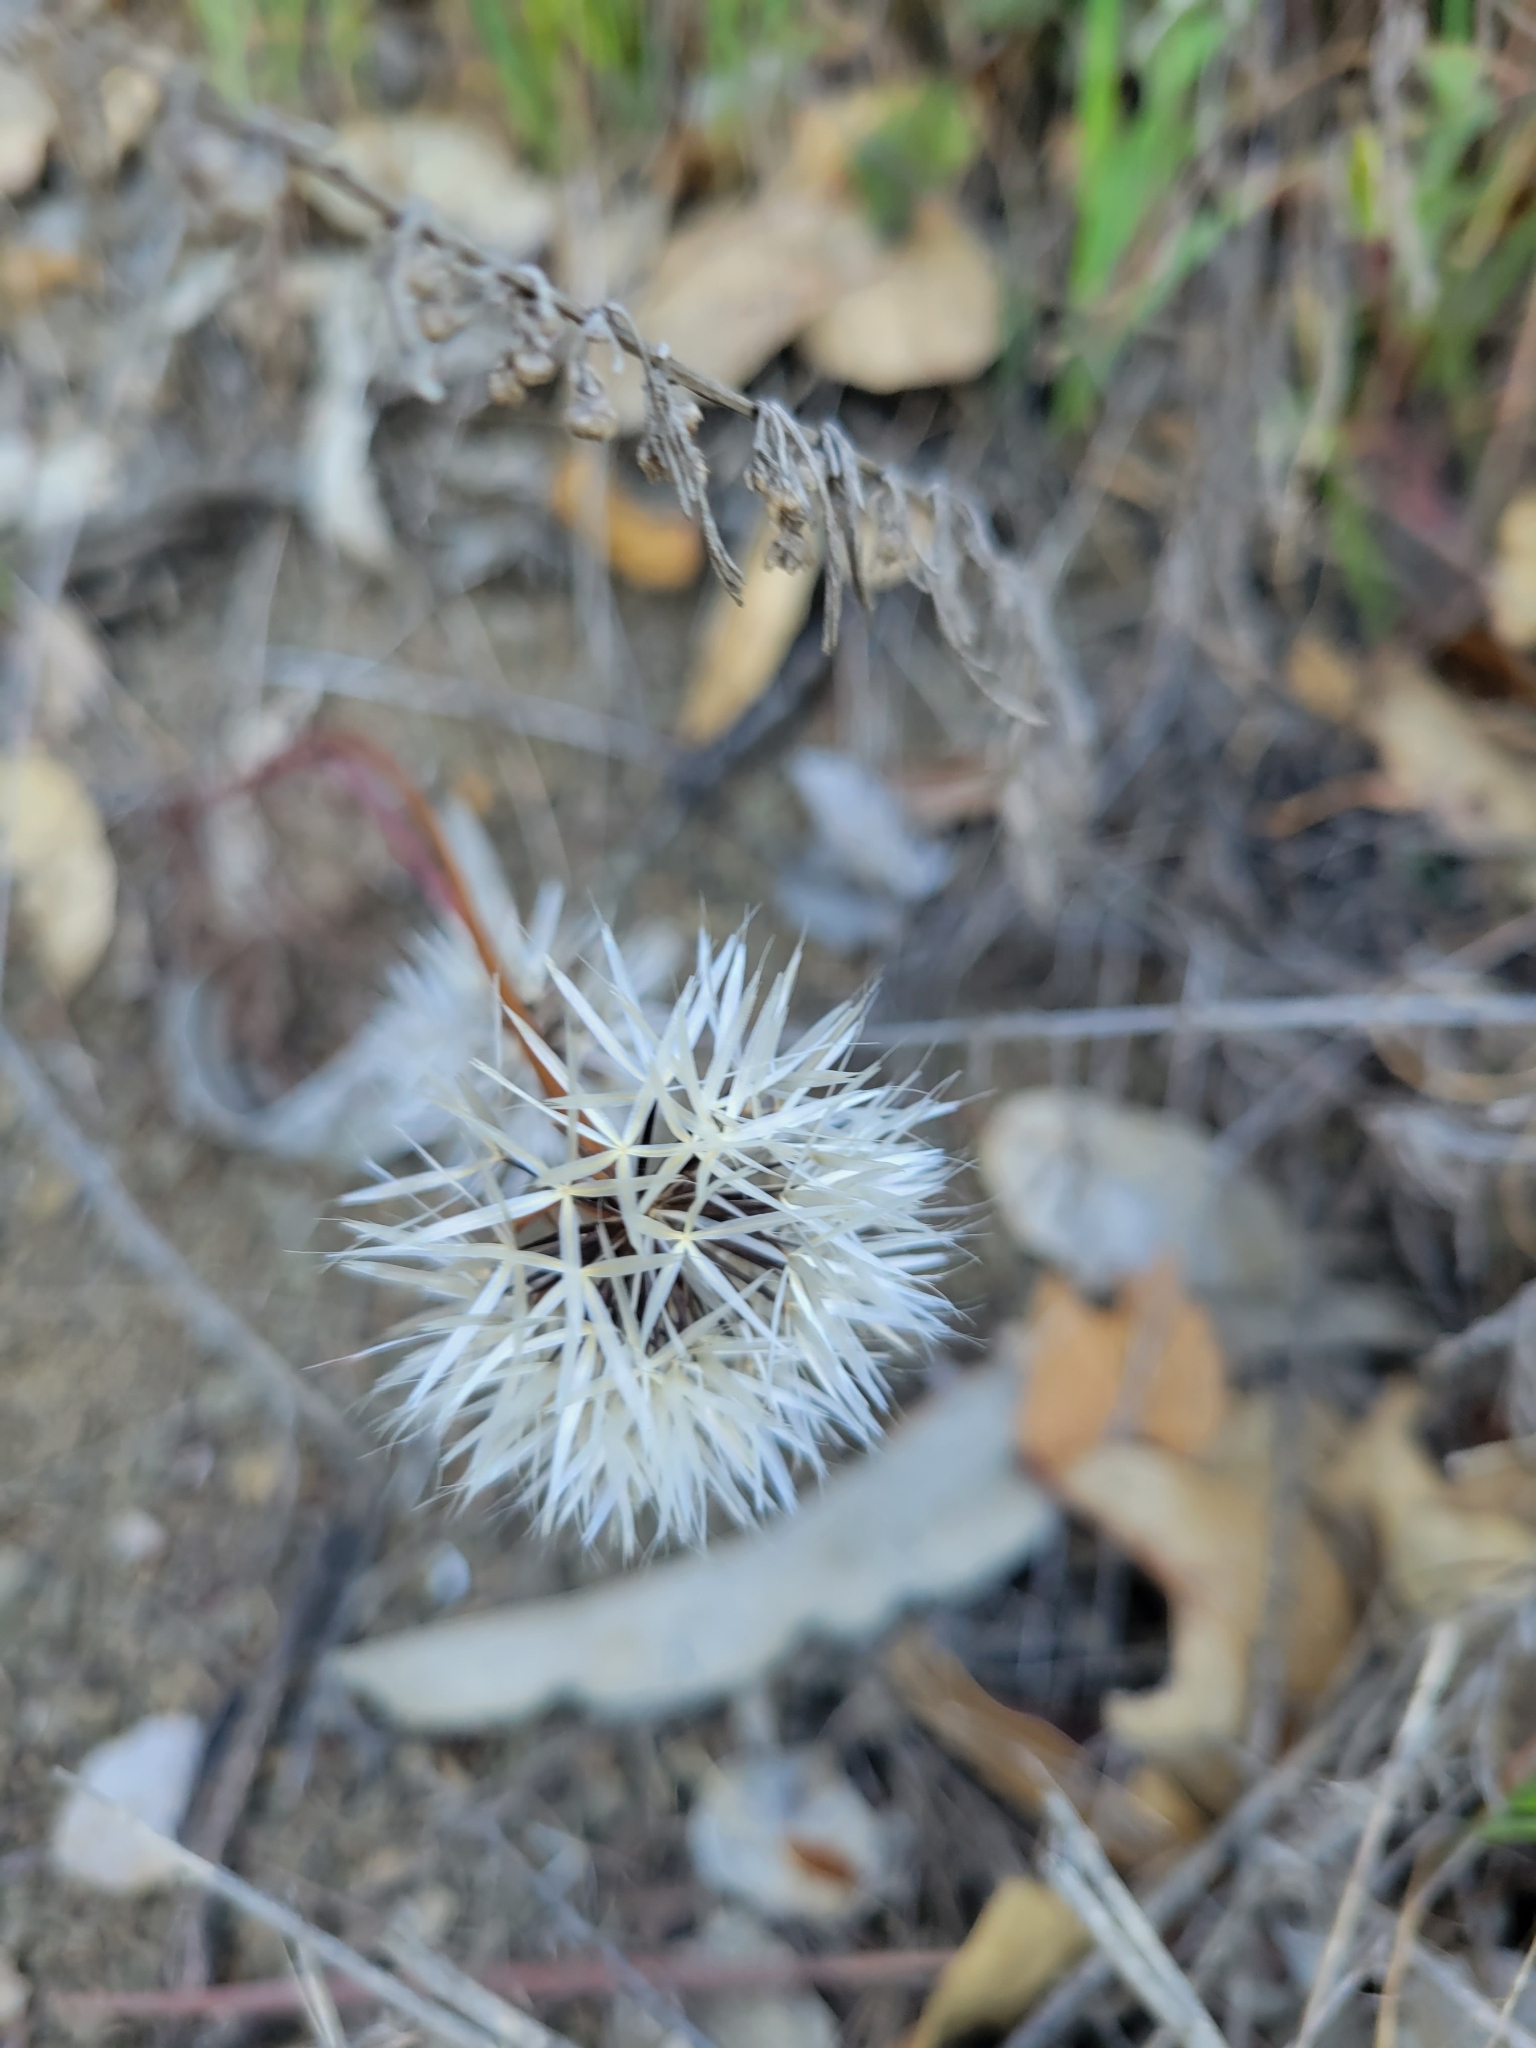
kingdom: Plantae
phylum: Tracheophyta
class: Magnoliopsida
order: Asterales
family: Asteraceae
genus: Microseris
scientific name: Microseris lindleyi
